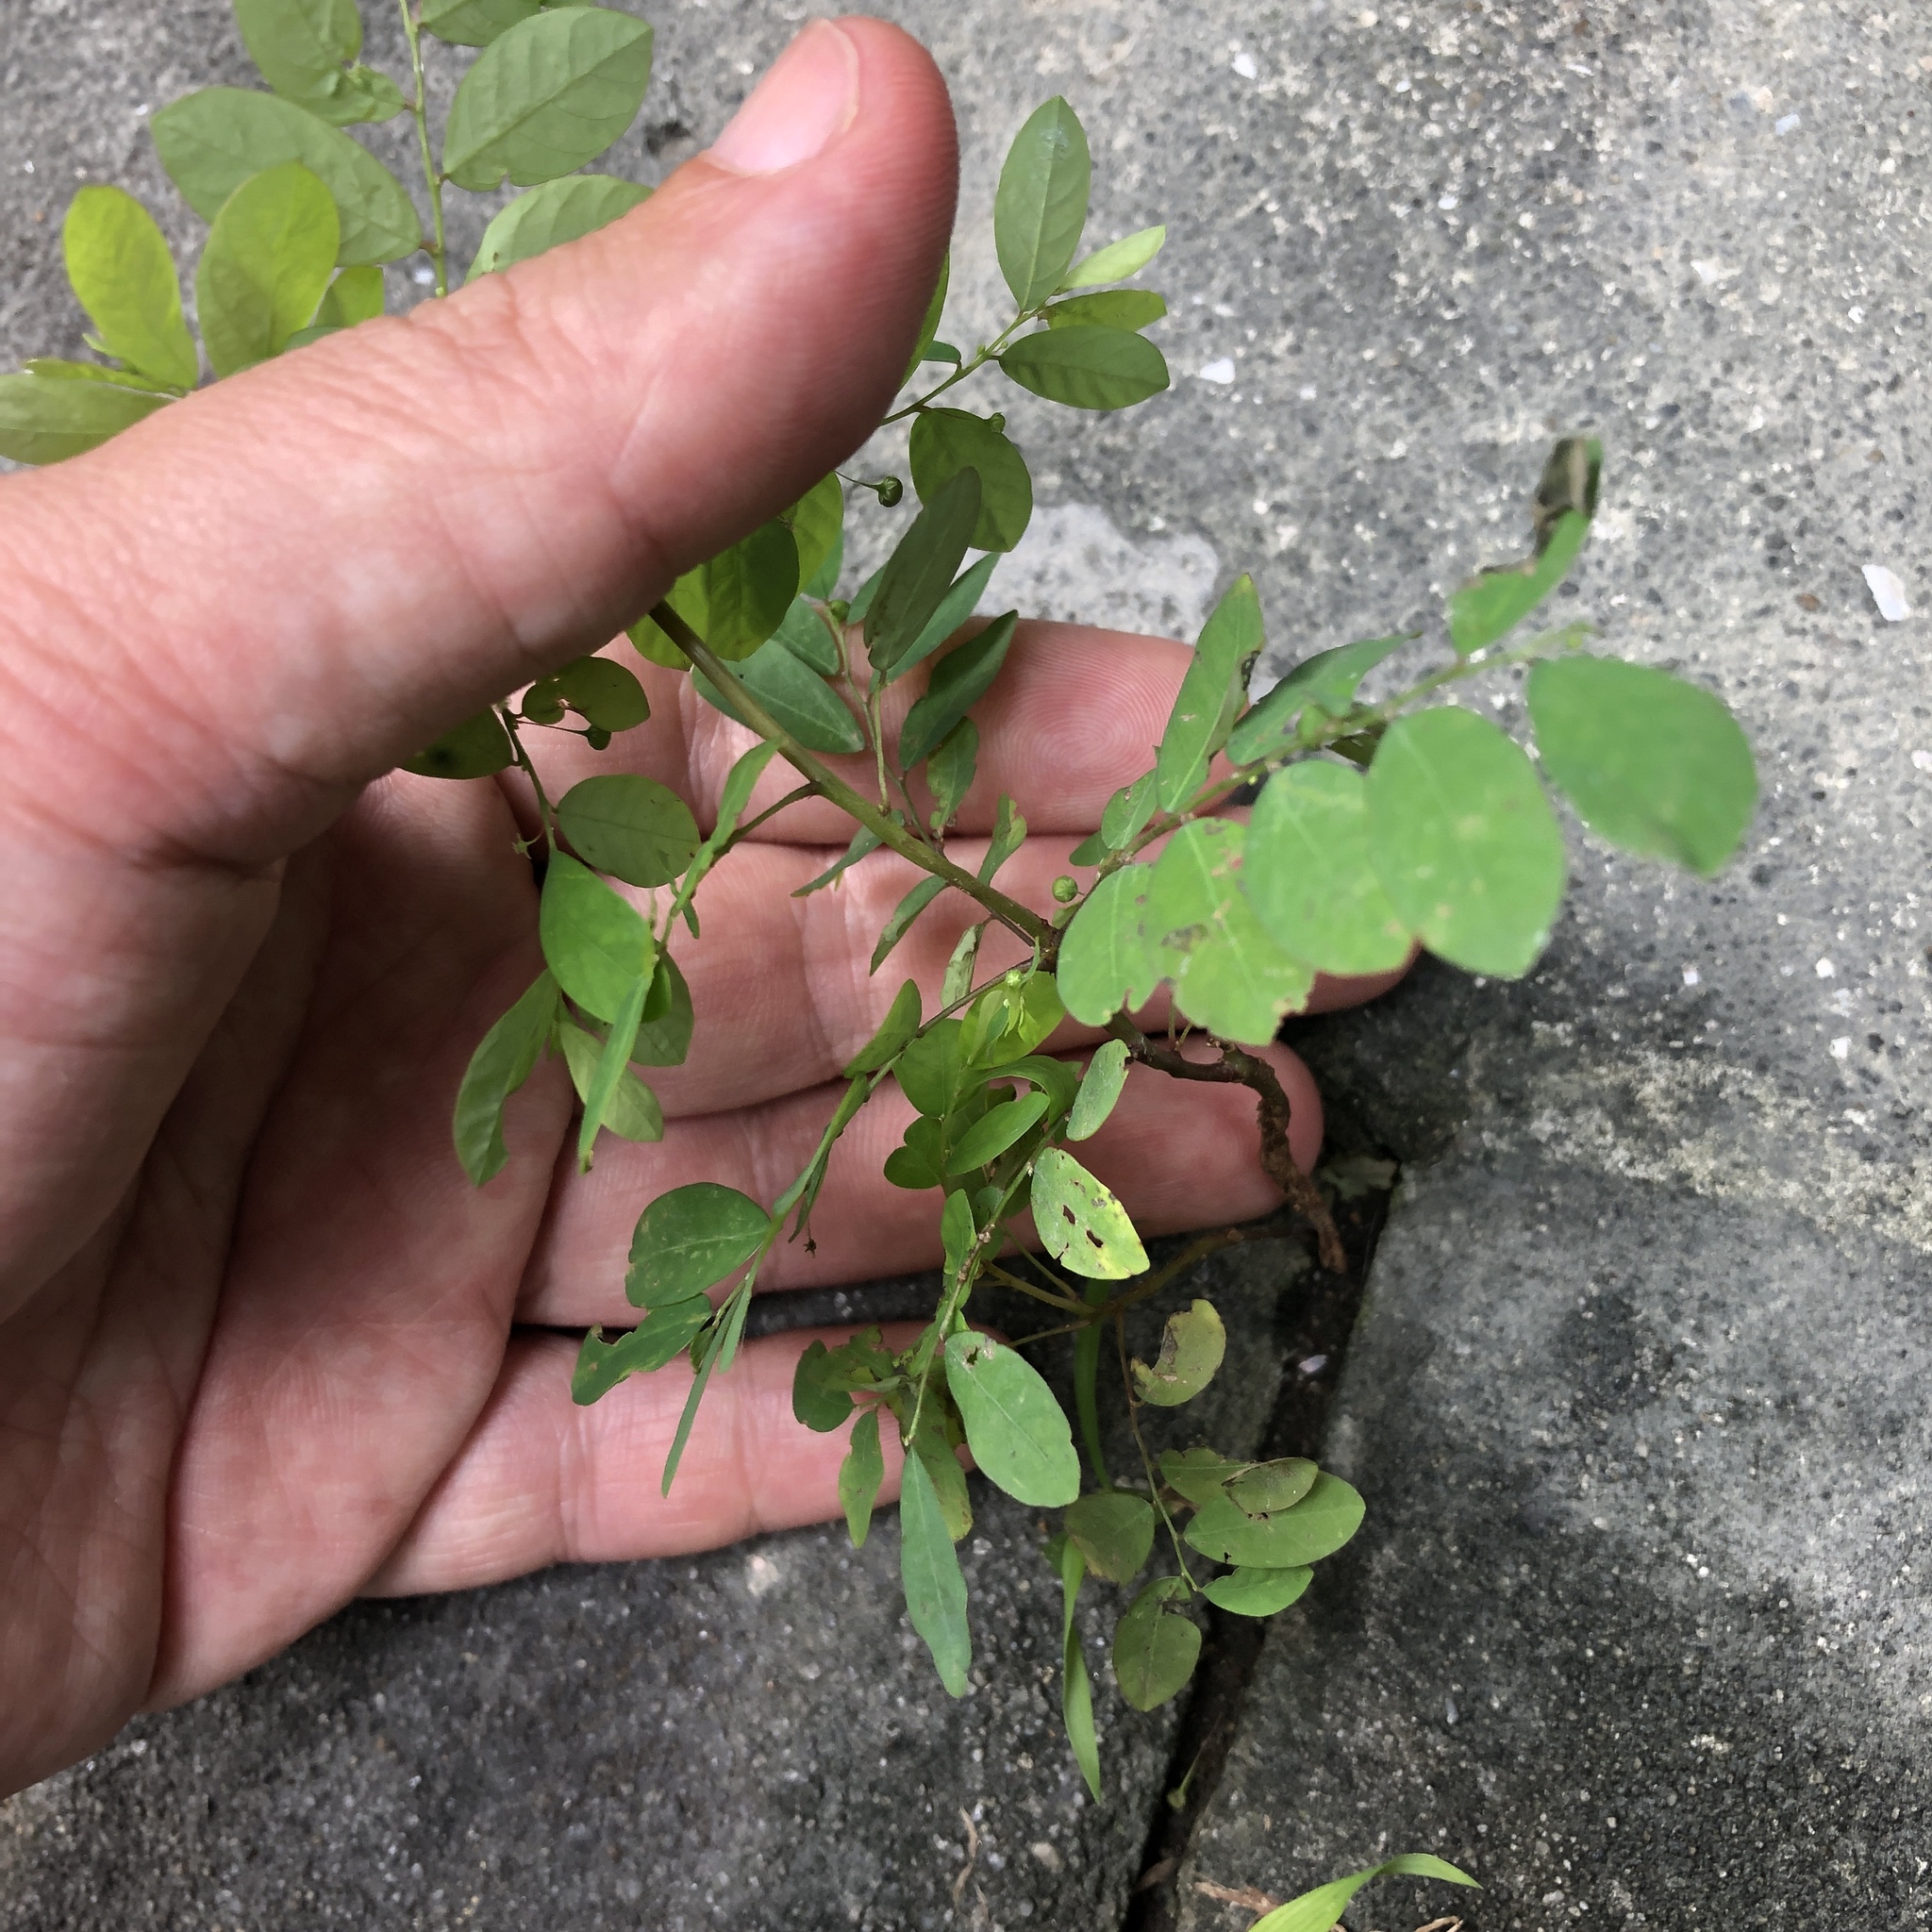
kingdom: Plantae
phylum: Tracheophyta
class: Magnoliopsida
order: Malpighiales
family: Phyllanthaceae
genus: Phyllanthus
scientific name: Phyllanthus tenellus
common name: Mascarene island leaf-flower
